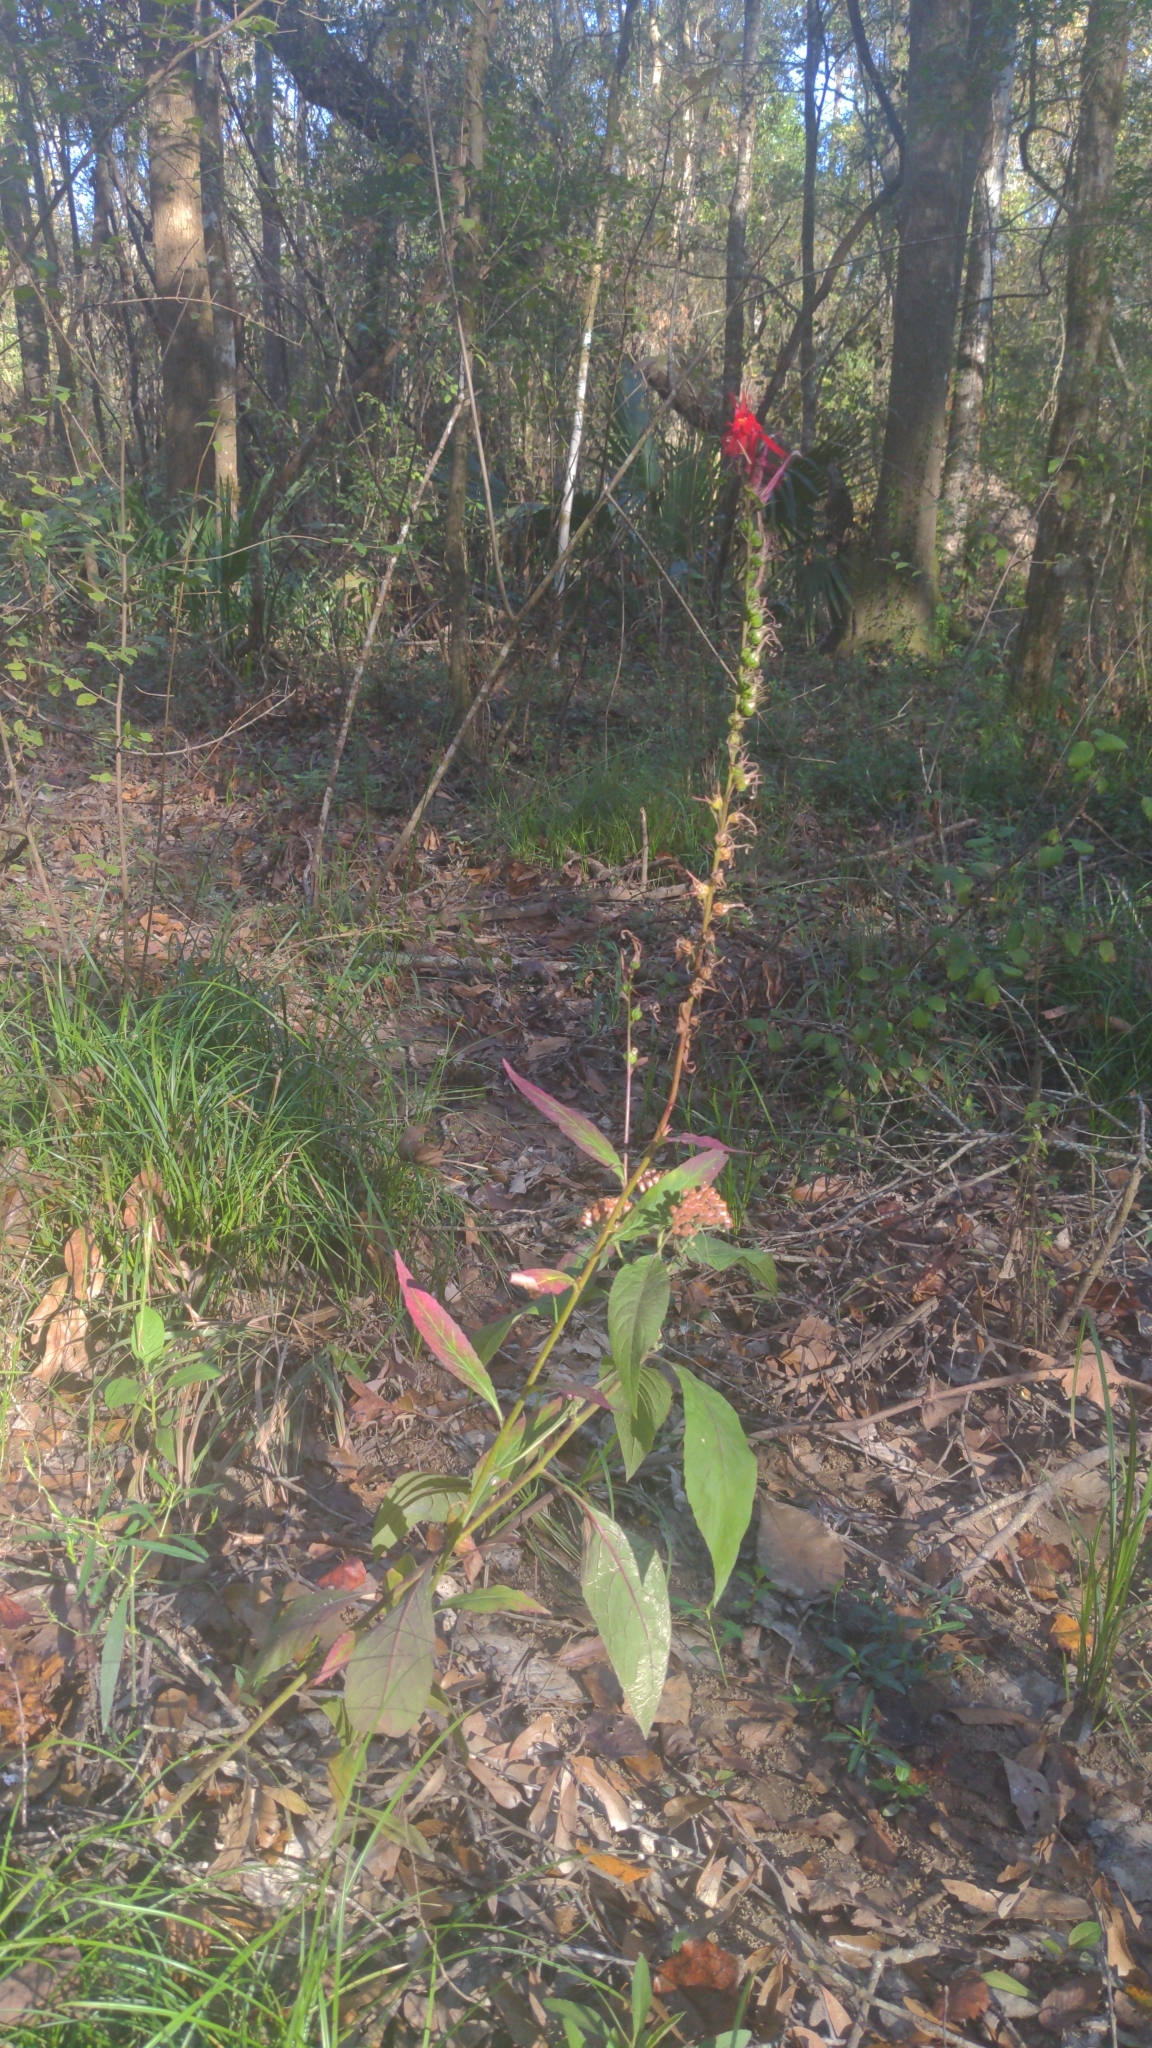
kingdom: Plantae
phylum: Tracheophyta
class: Magnoliopsida
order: Asterales
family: Campanulaceae
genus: Lobelia
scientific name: Lobelia cardinalis
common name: Cardinal flower
